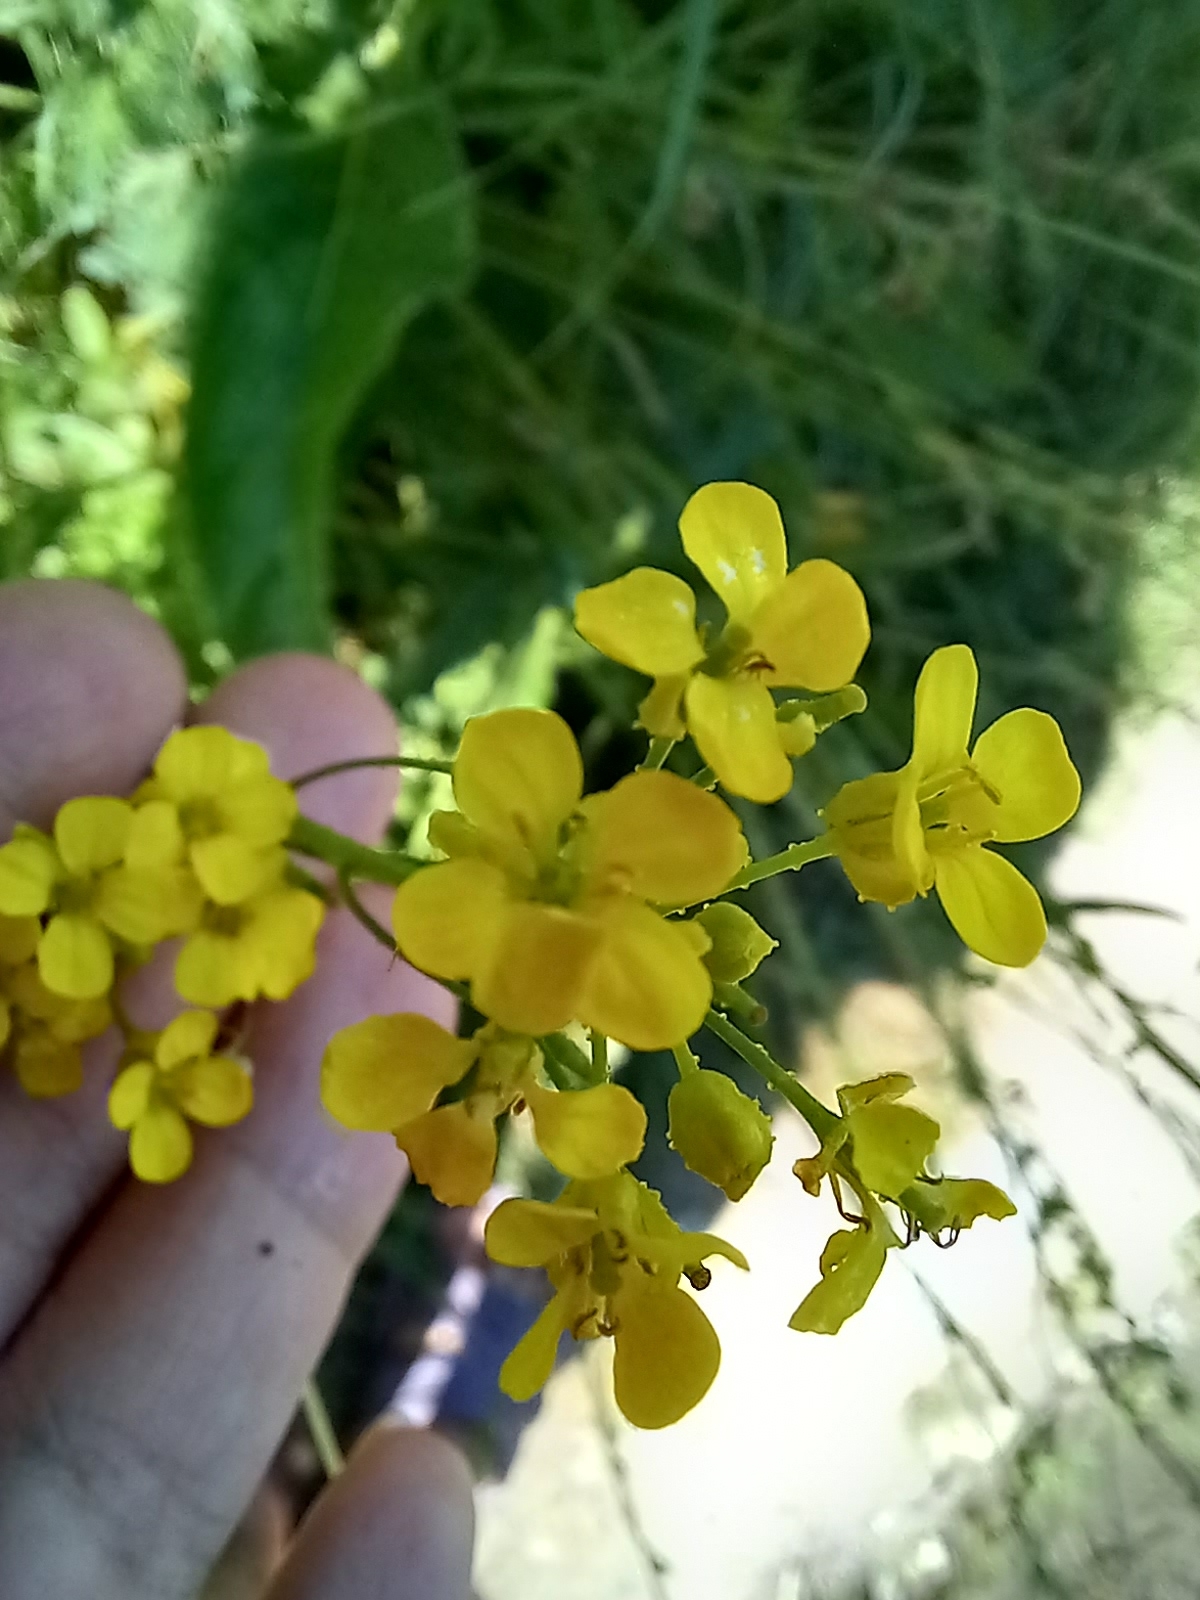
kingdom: Plantae
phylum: Tracheophyta
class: Magnoliopsida
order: Brassicales
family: Brassicaceae
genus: Bunias
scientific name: Bunias orientalis
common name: Warty-cabbage
